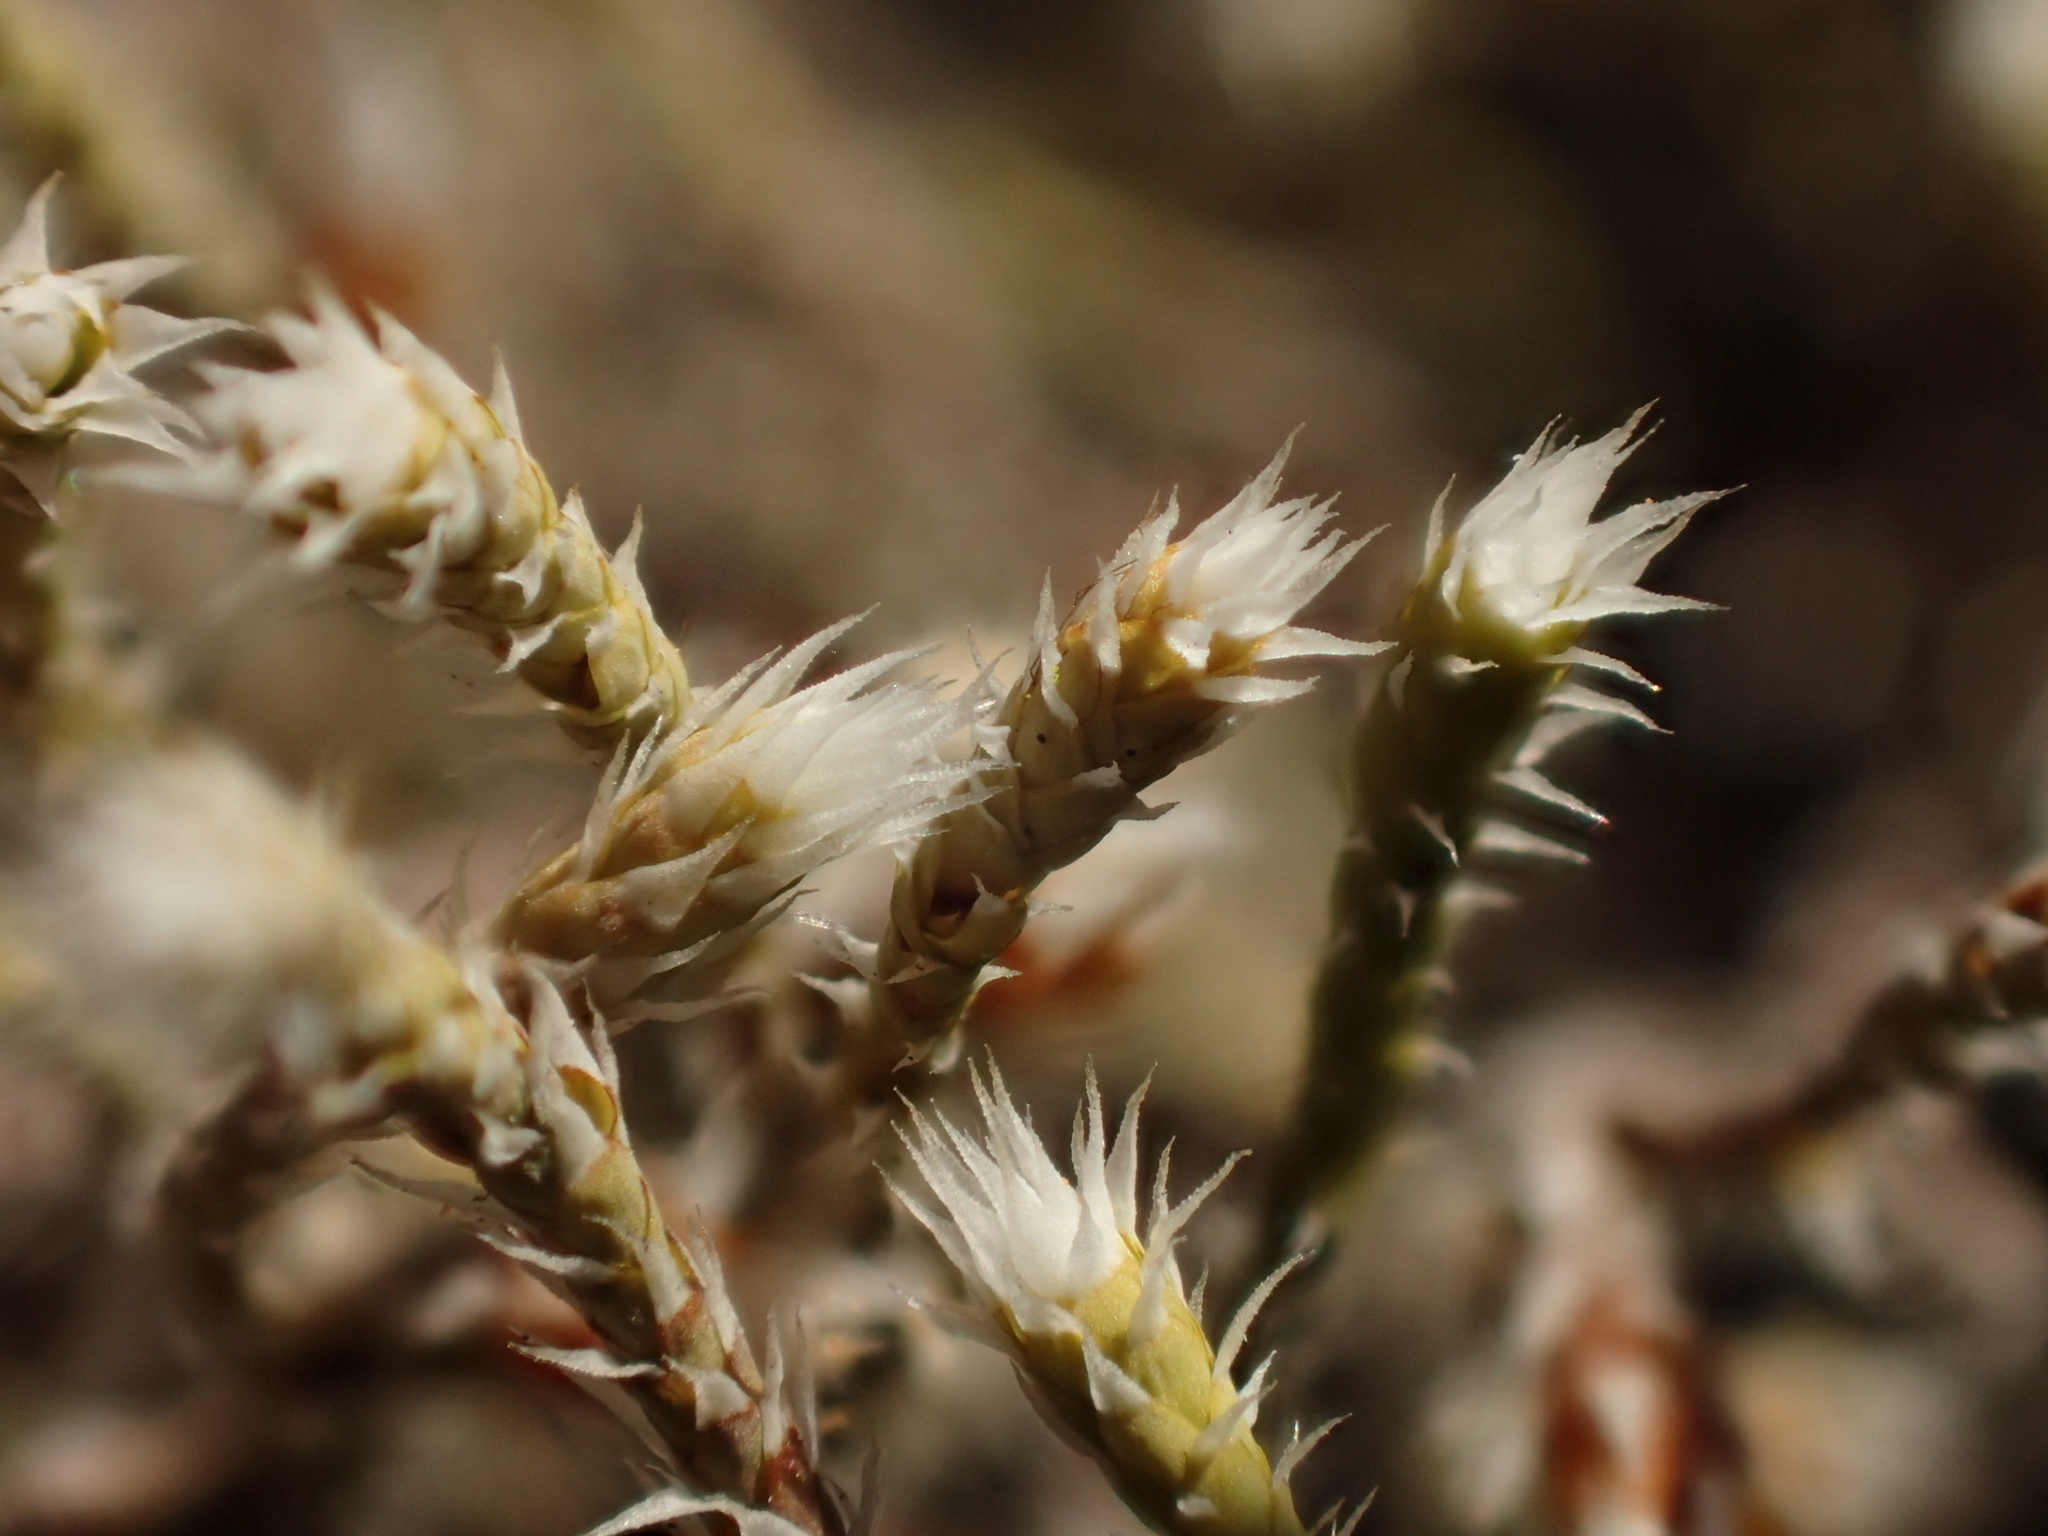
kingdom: Plantae
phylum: Bryophyta
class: Bryopsida
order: Hedwigiales
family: Hedwigiaceae
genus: Hedwigia
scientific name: Hedwigia ciliata
